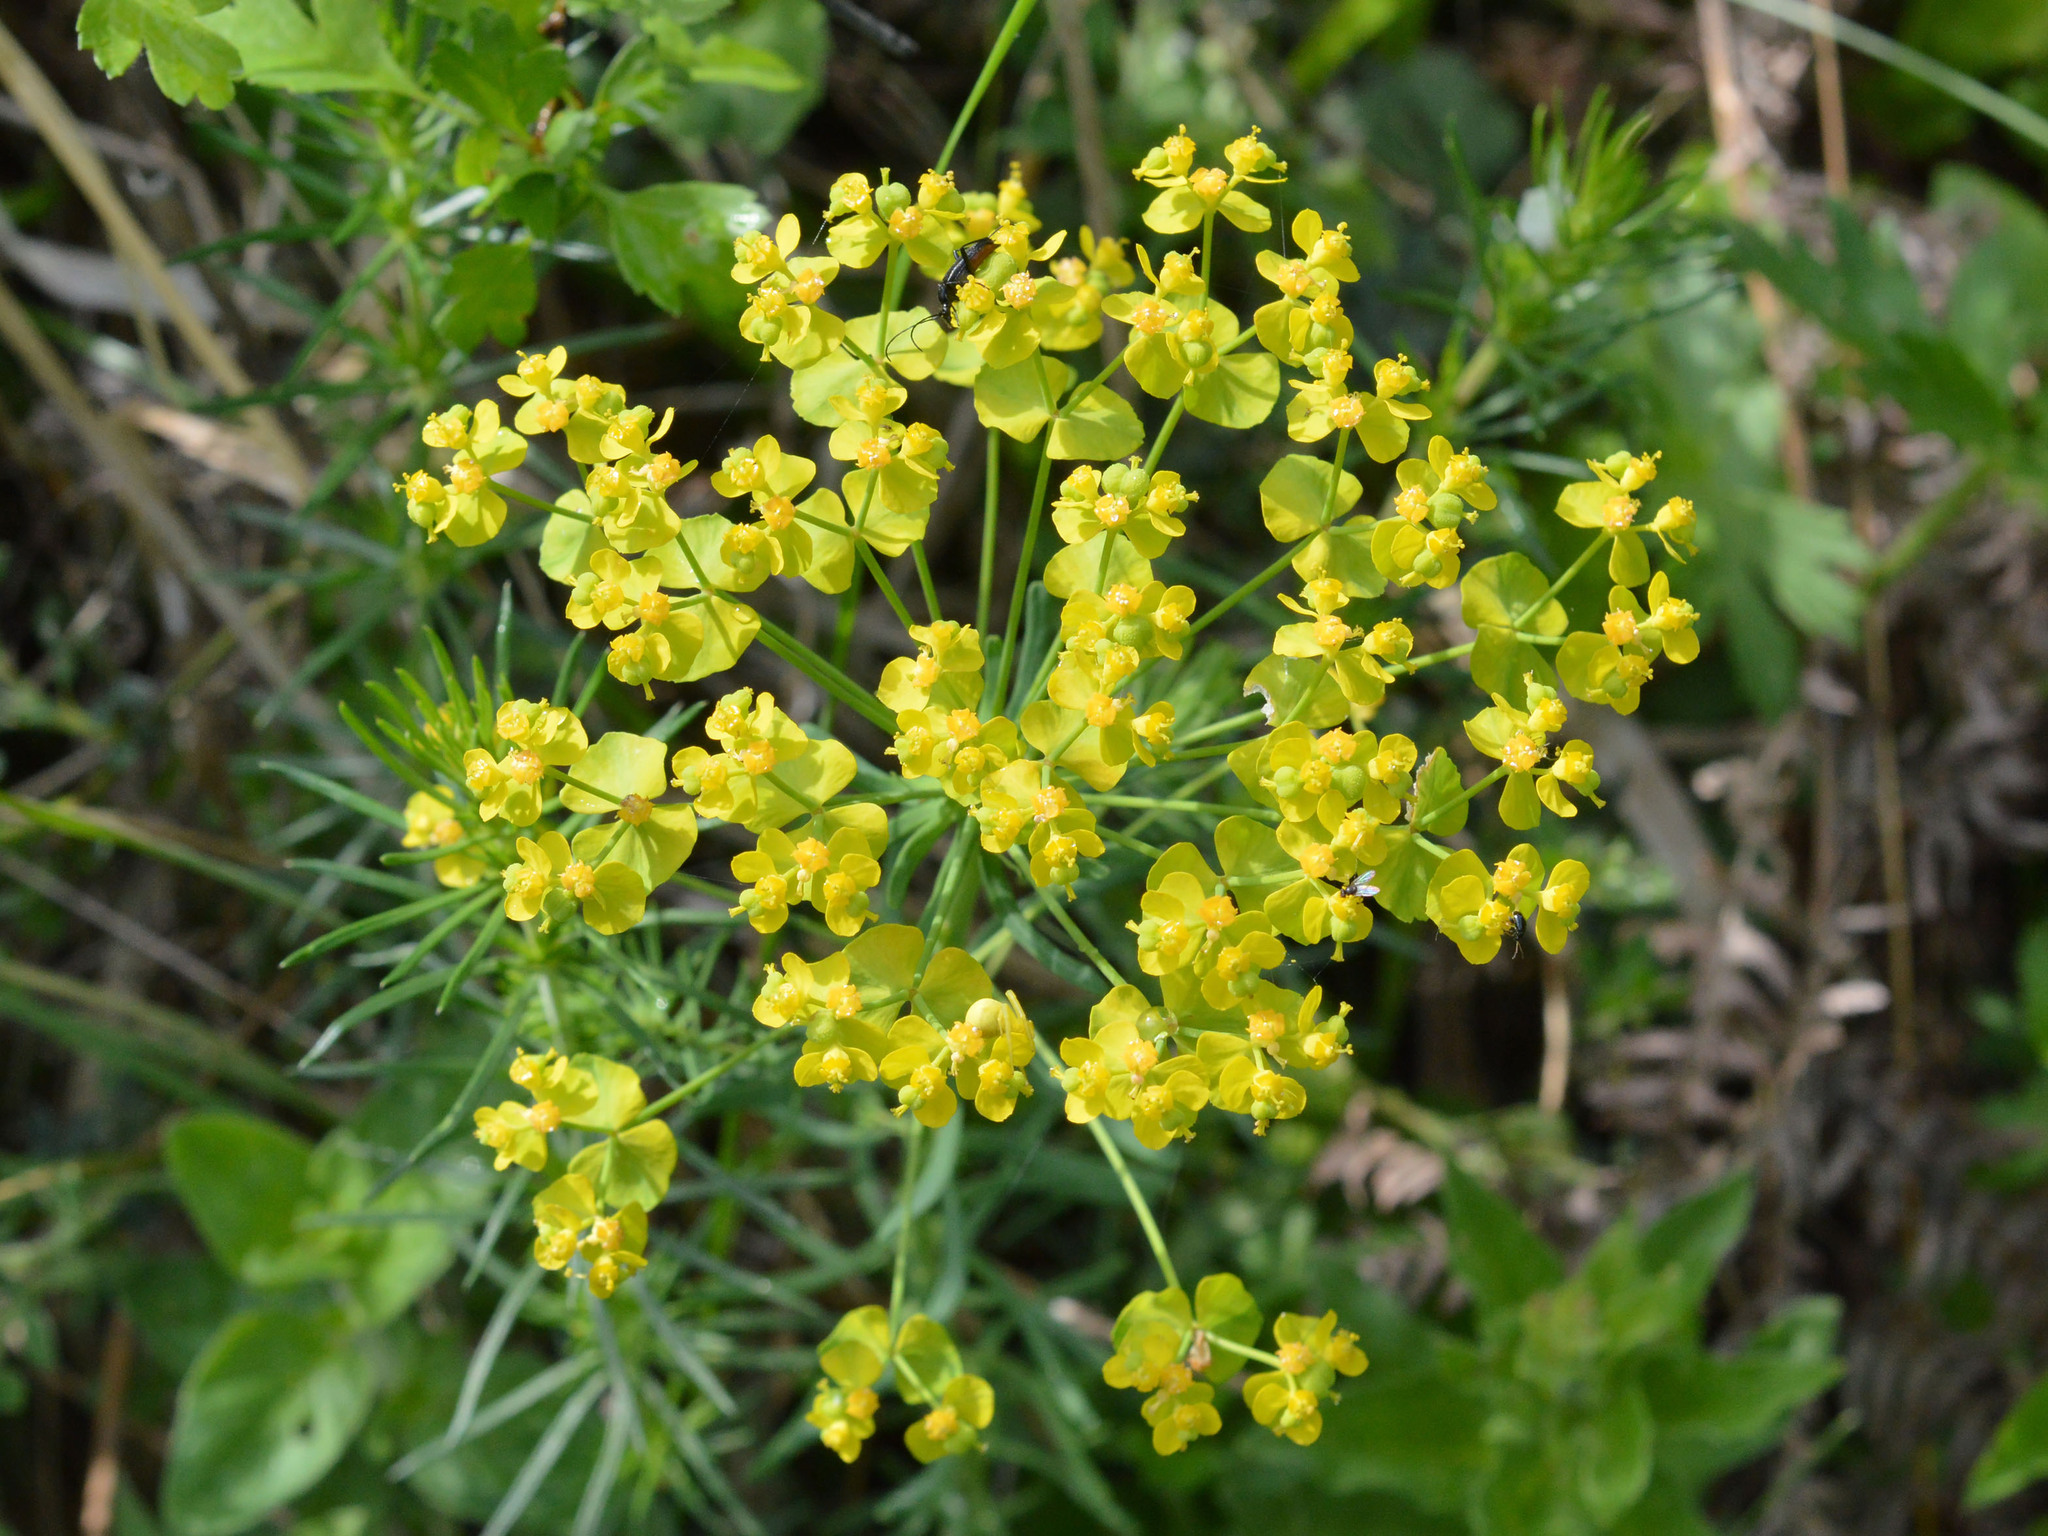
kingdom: Plantae
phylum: Tracheophyta
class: Magnoliopsida
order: Malpighiales
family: Euphorbiaceae
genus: Euphorbia
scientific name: Euphorbia cyparissias
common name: Cypress spurge
